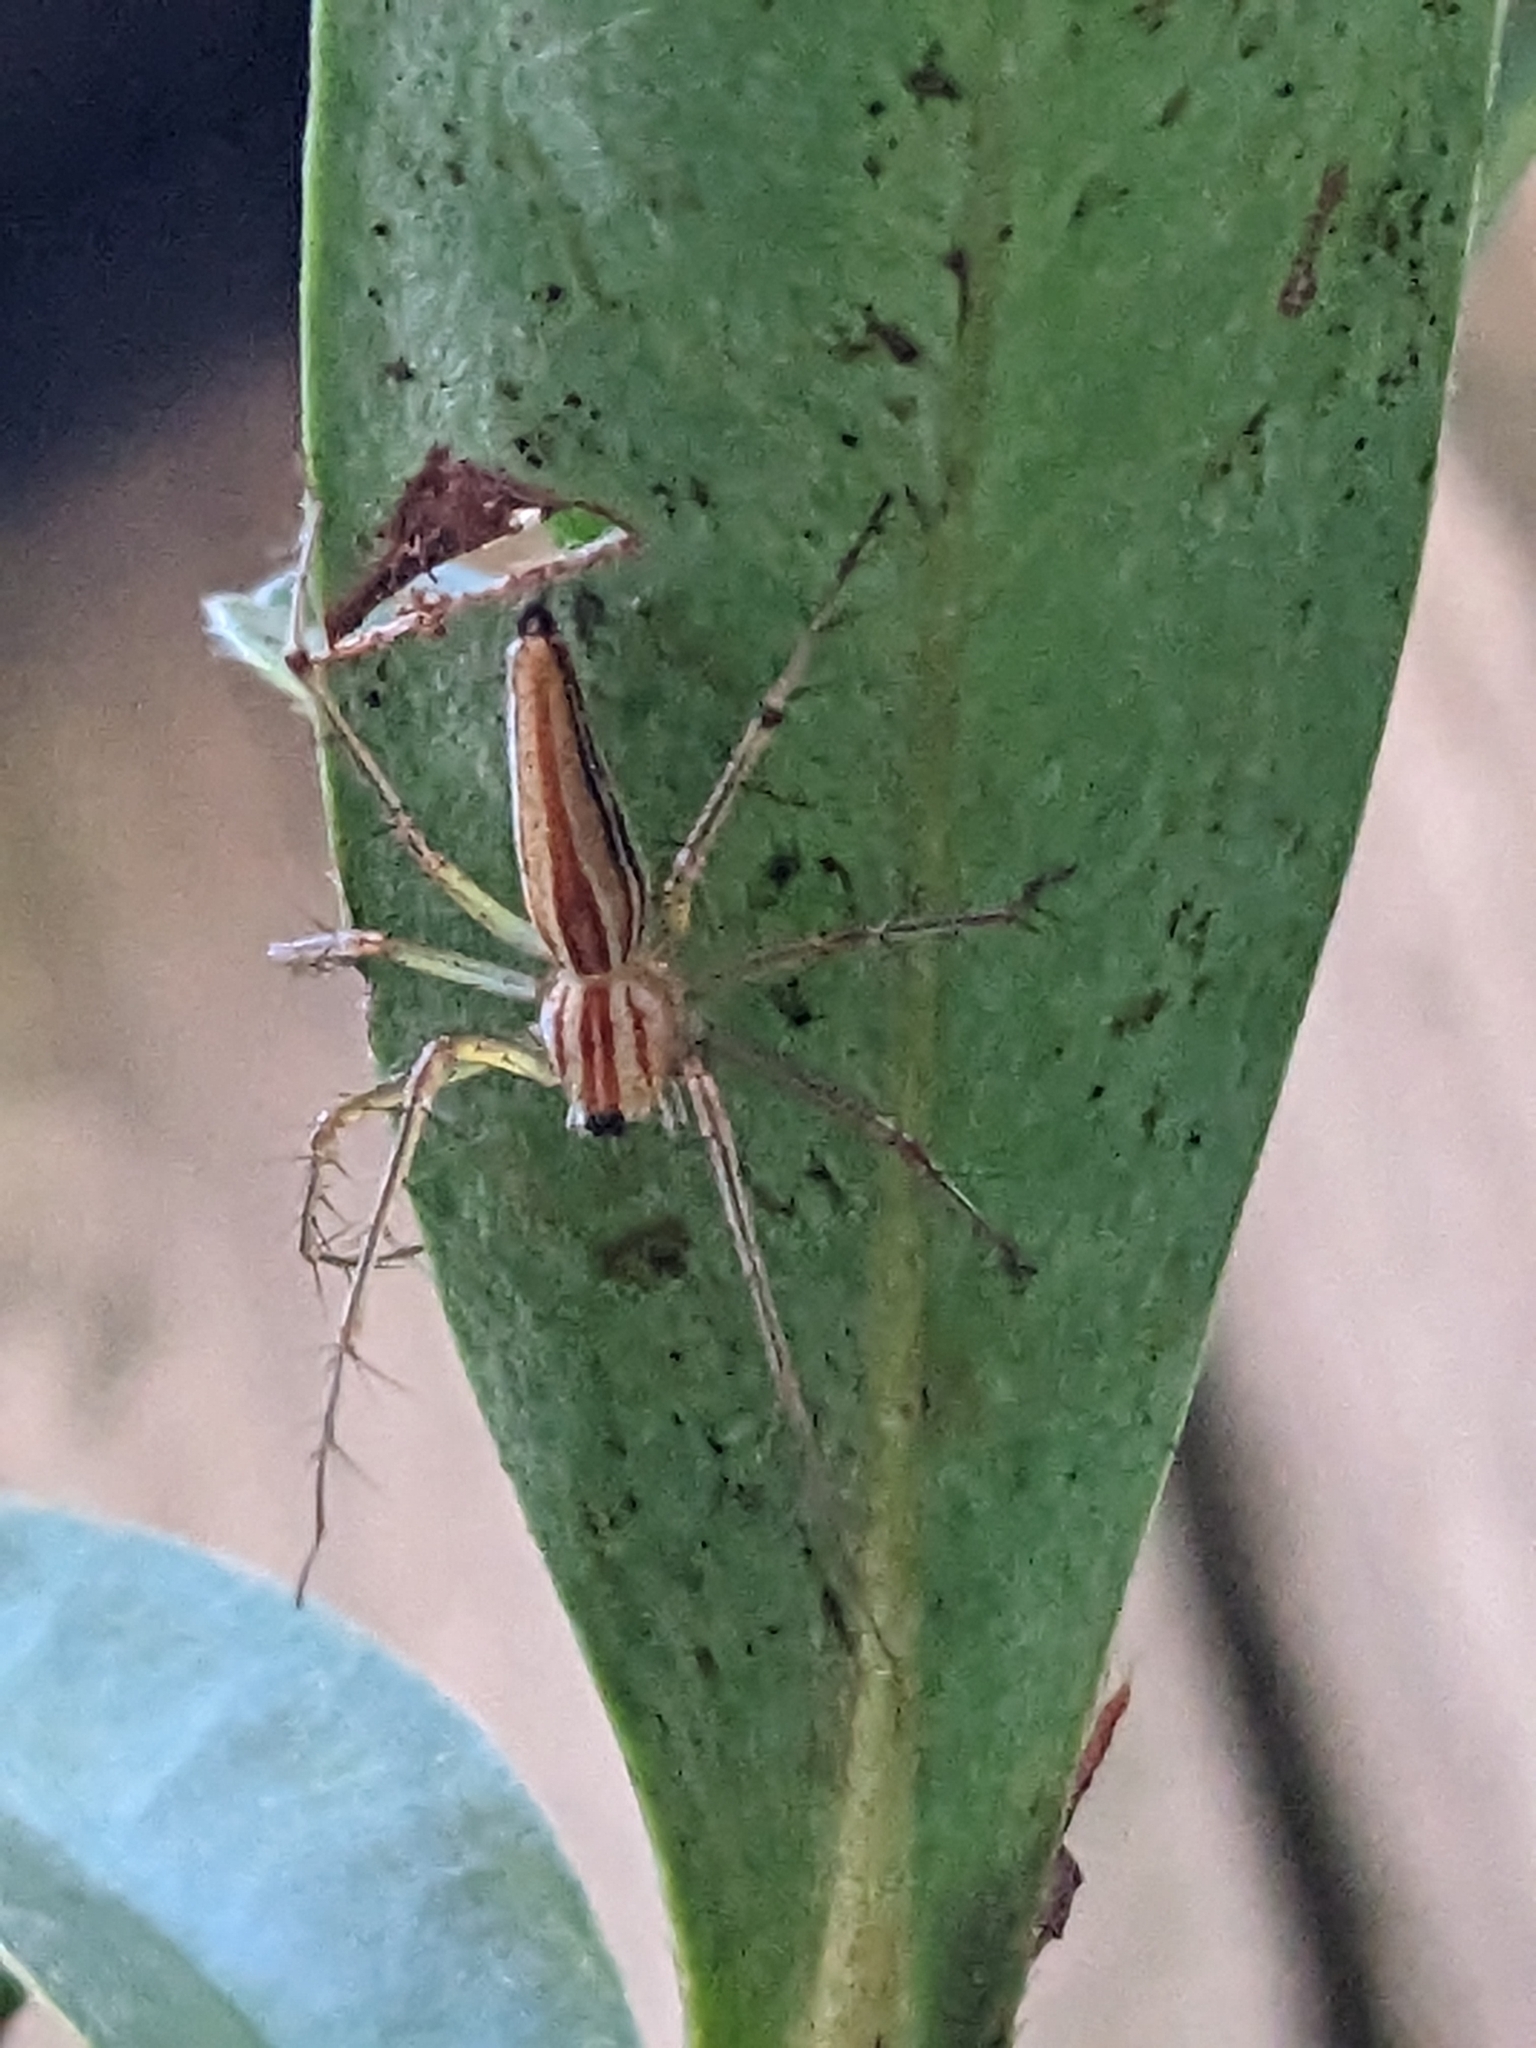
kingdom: Animalia
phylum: Arthropoda
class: Arachnida
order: Araneae
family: Oxyopidae
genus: Oxyopes
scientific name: Oxyopes macilentus
